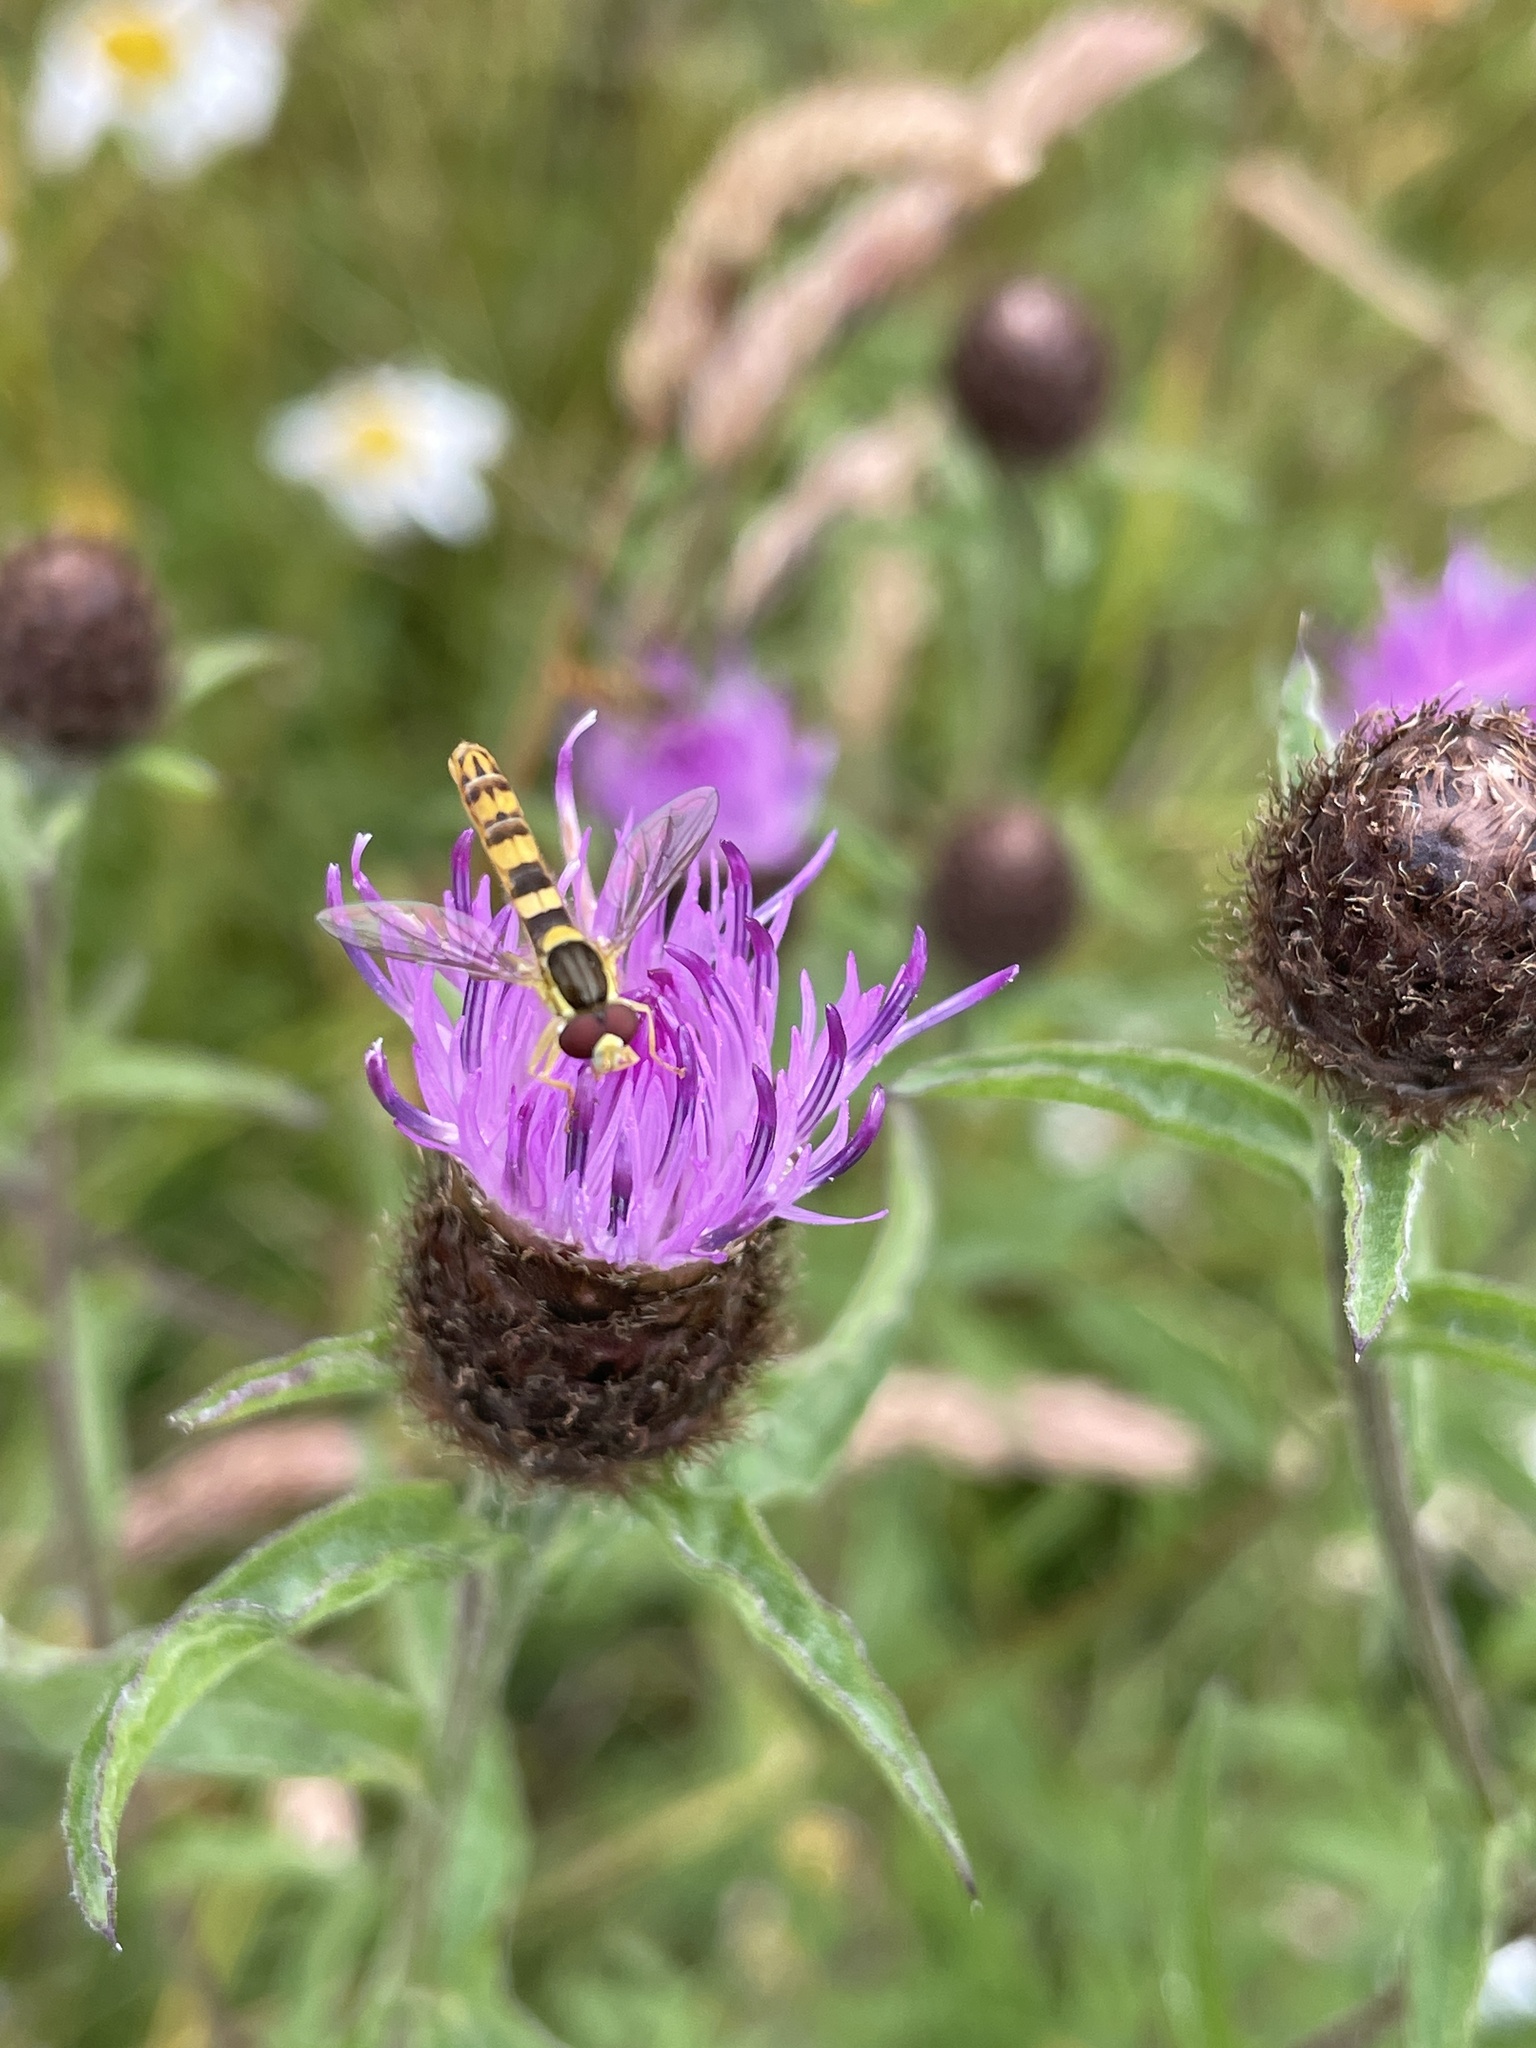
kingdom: Animalia
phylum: Arthropoda
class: Insecta
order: Diptera
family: Syrphidae
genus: Sphaerophoria
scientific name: Sphaerophoria scripta
